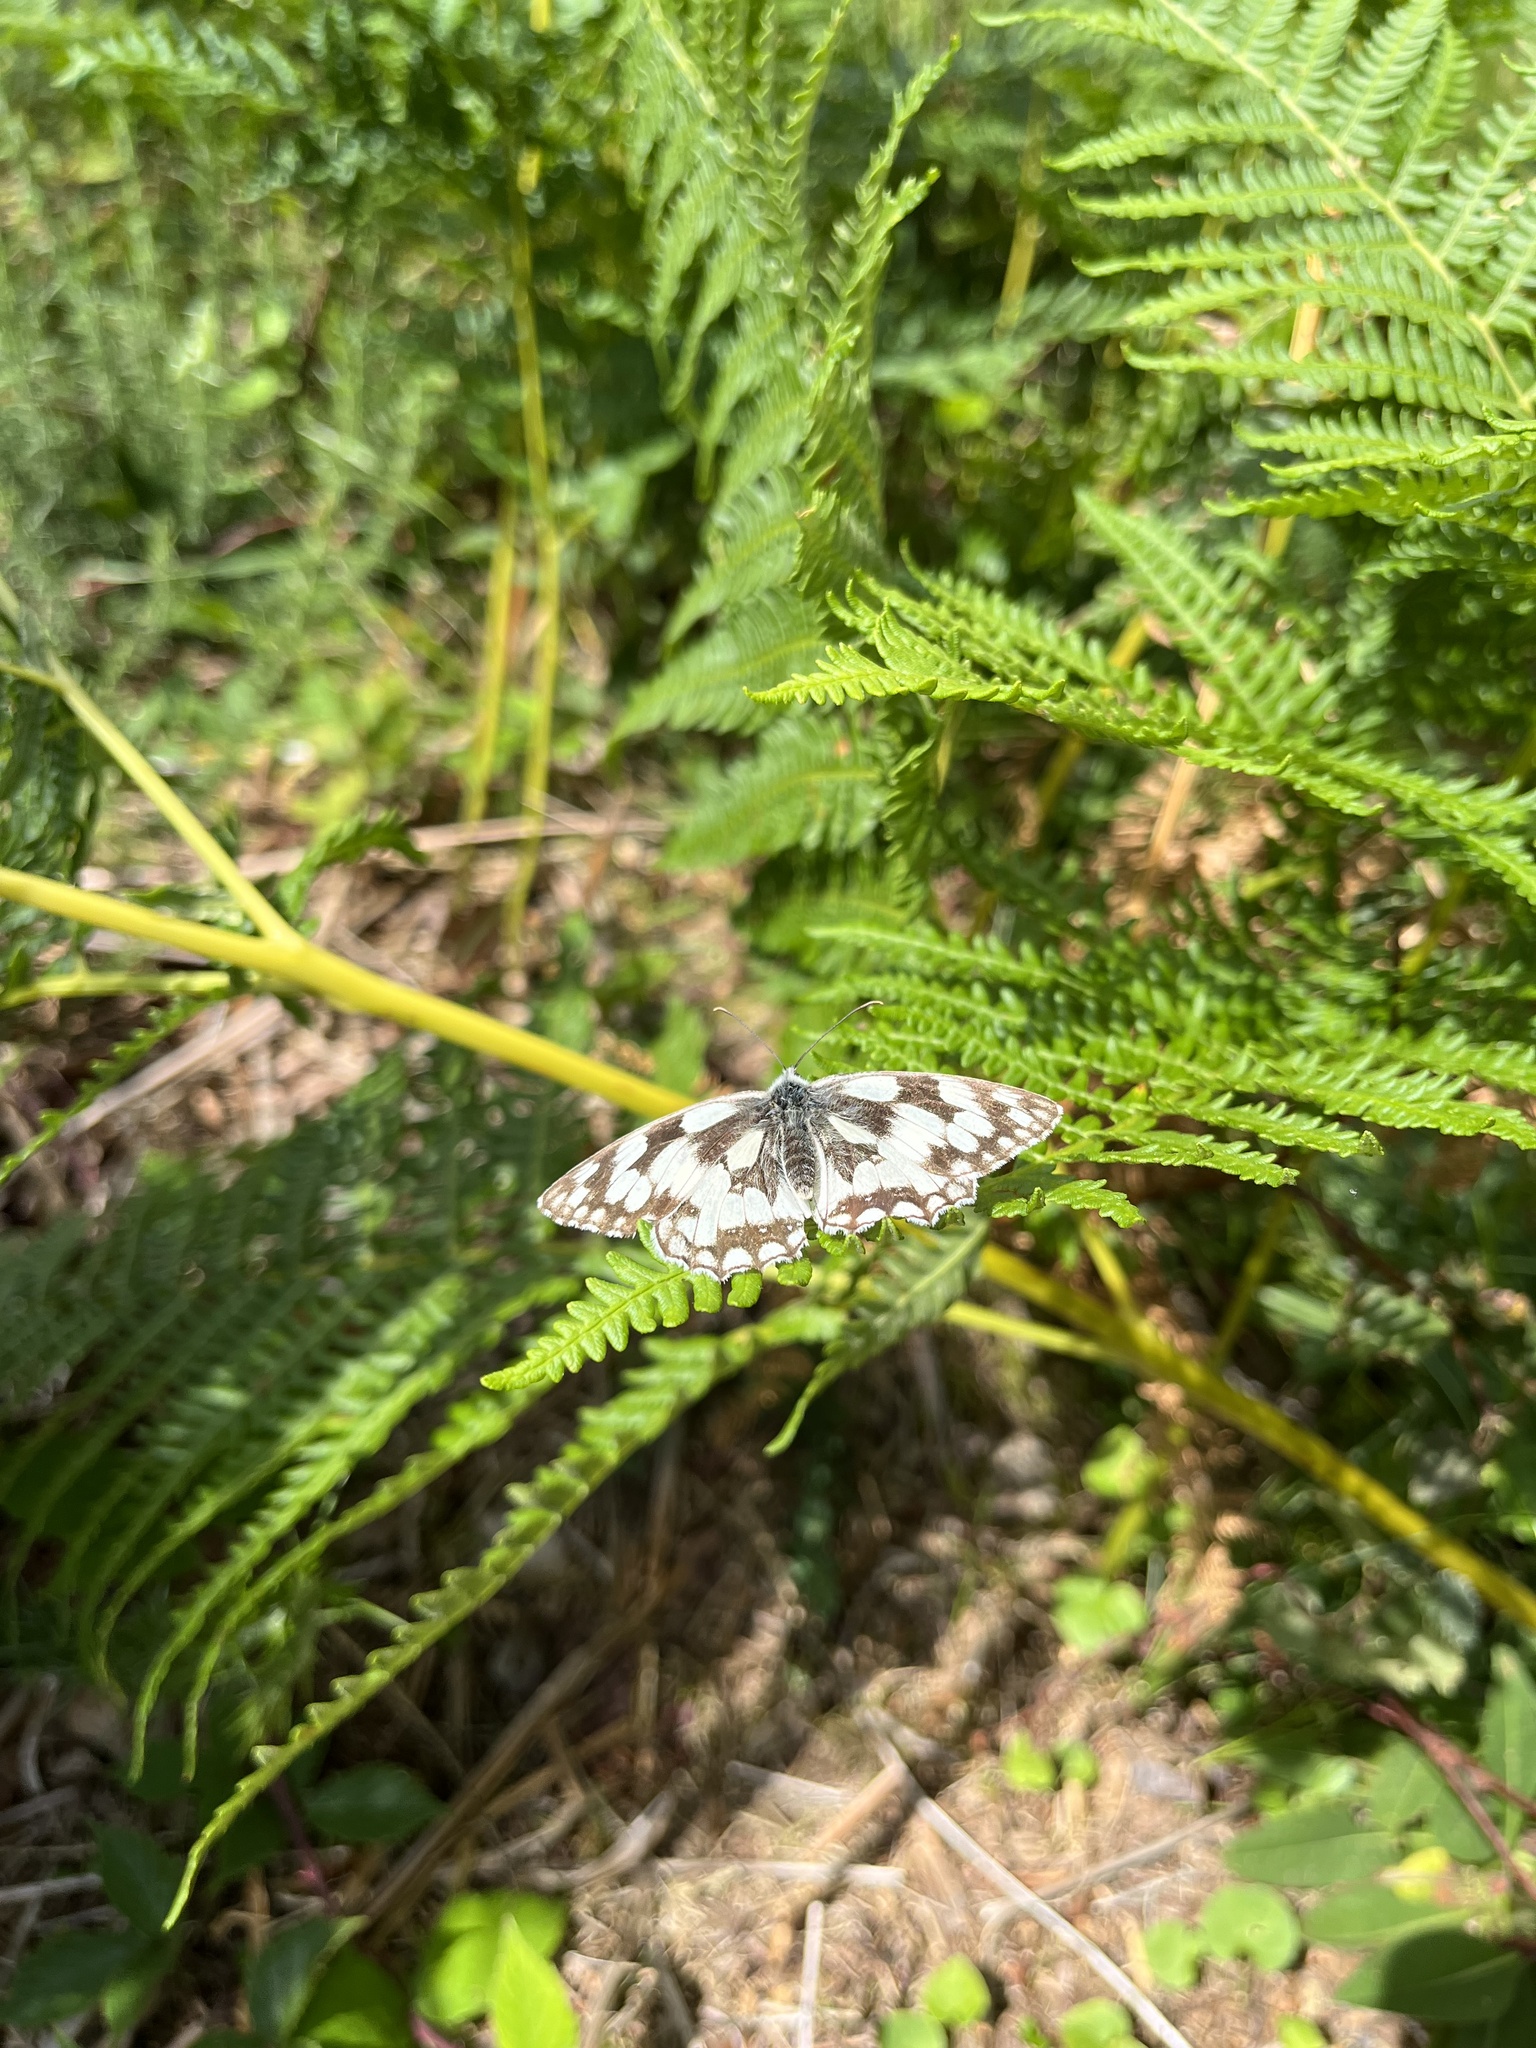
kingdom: Animalia
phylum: Arthropoda
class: Insecta
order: Lepidoptera
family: Nymphalidae
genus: Melanargia
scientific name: Melanargia galathea
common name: Marbled white
